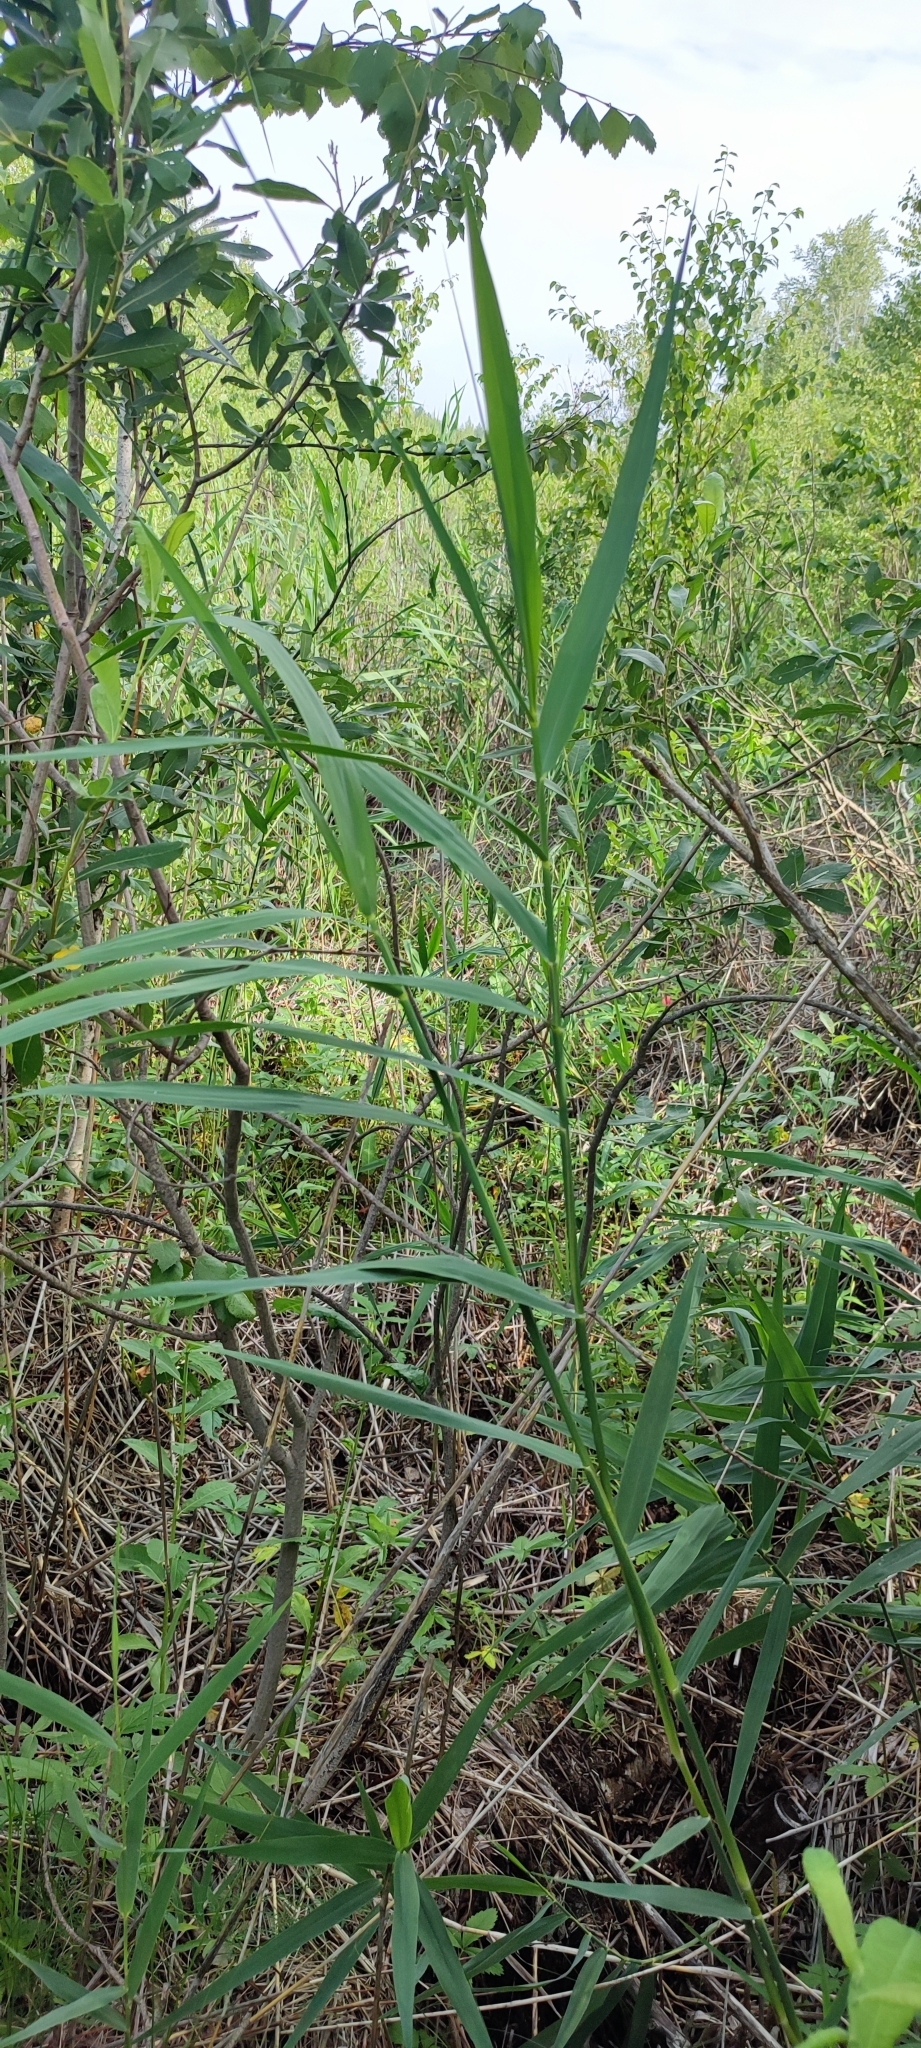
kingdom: Plantae
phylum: Tracheophyta
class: Liliopsida
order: Poales
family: Poaceae
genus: Phragmites
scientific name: Phragmites australis
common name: Common reed
